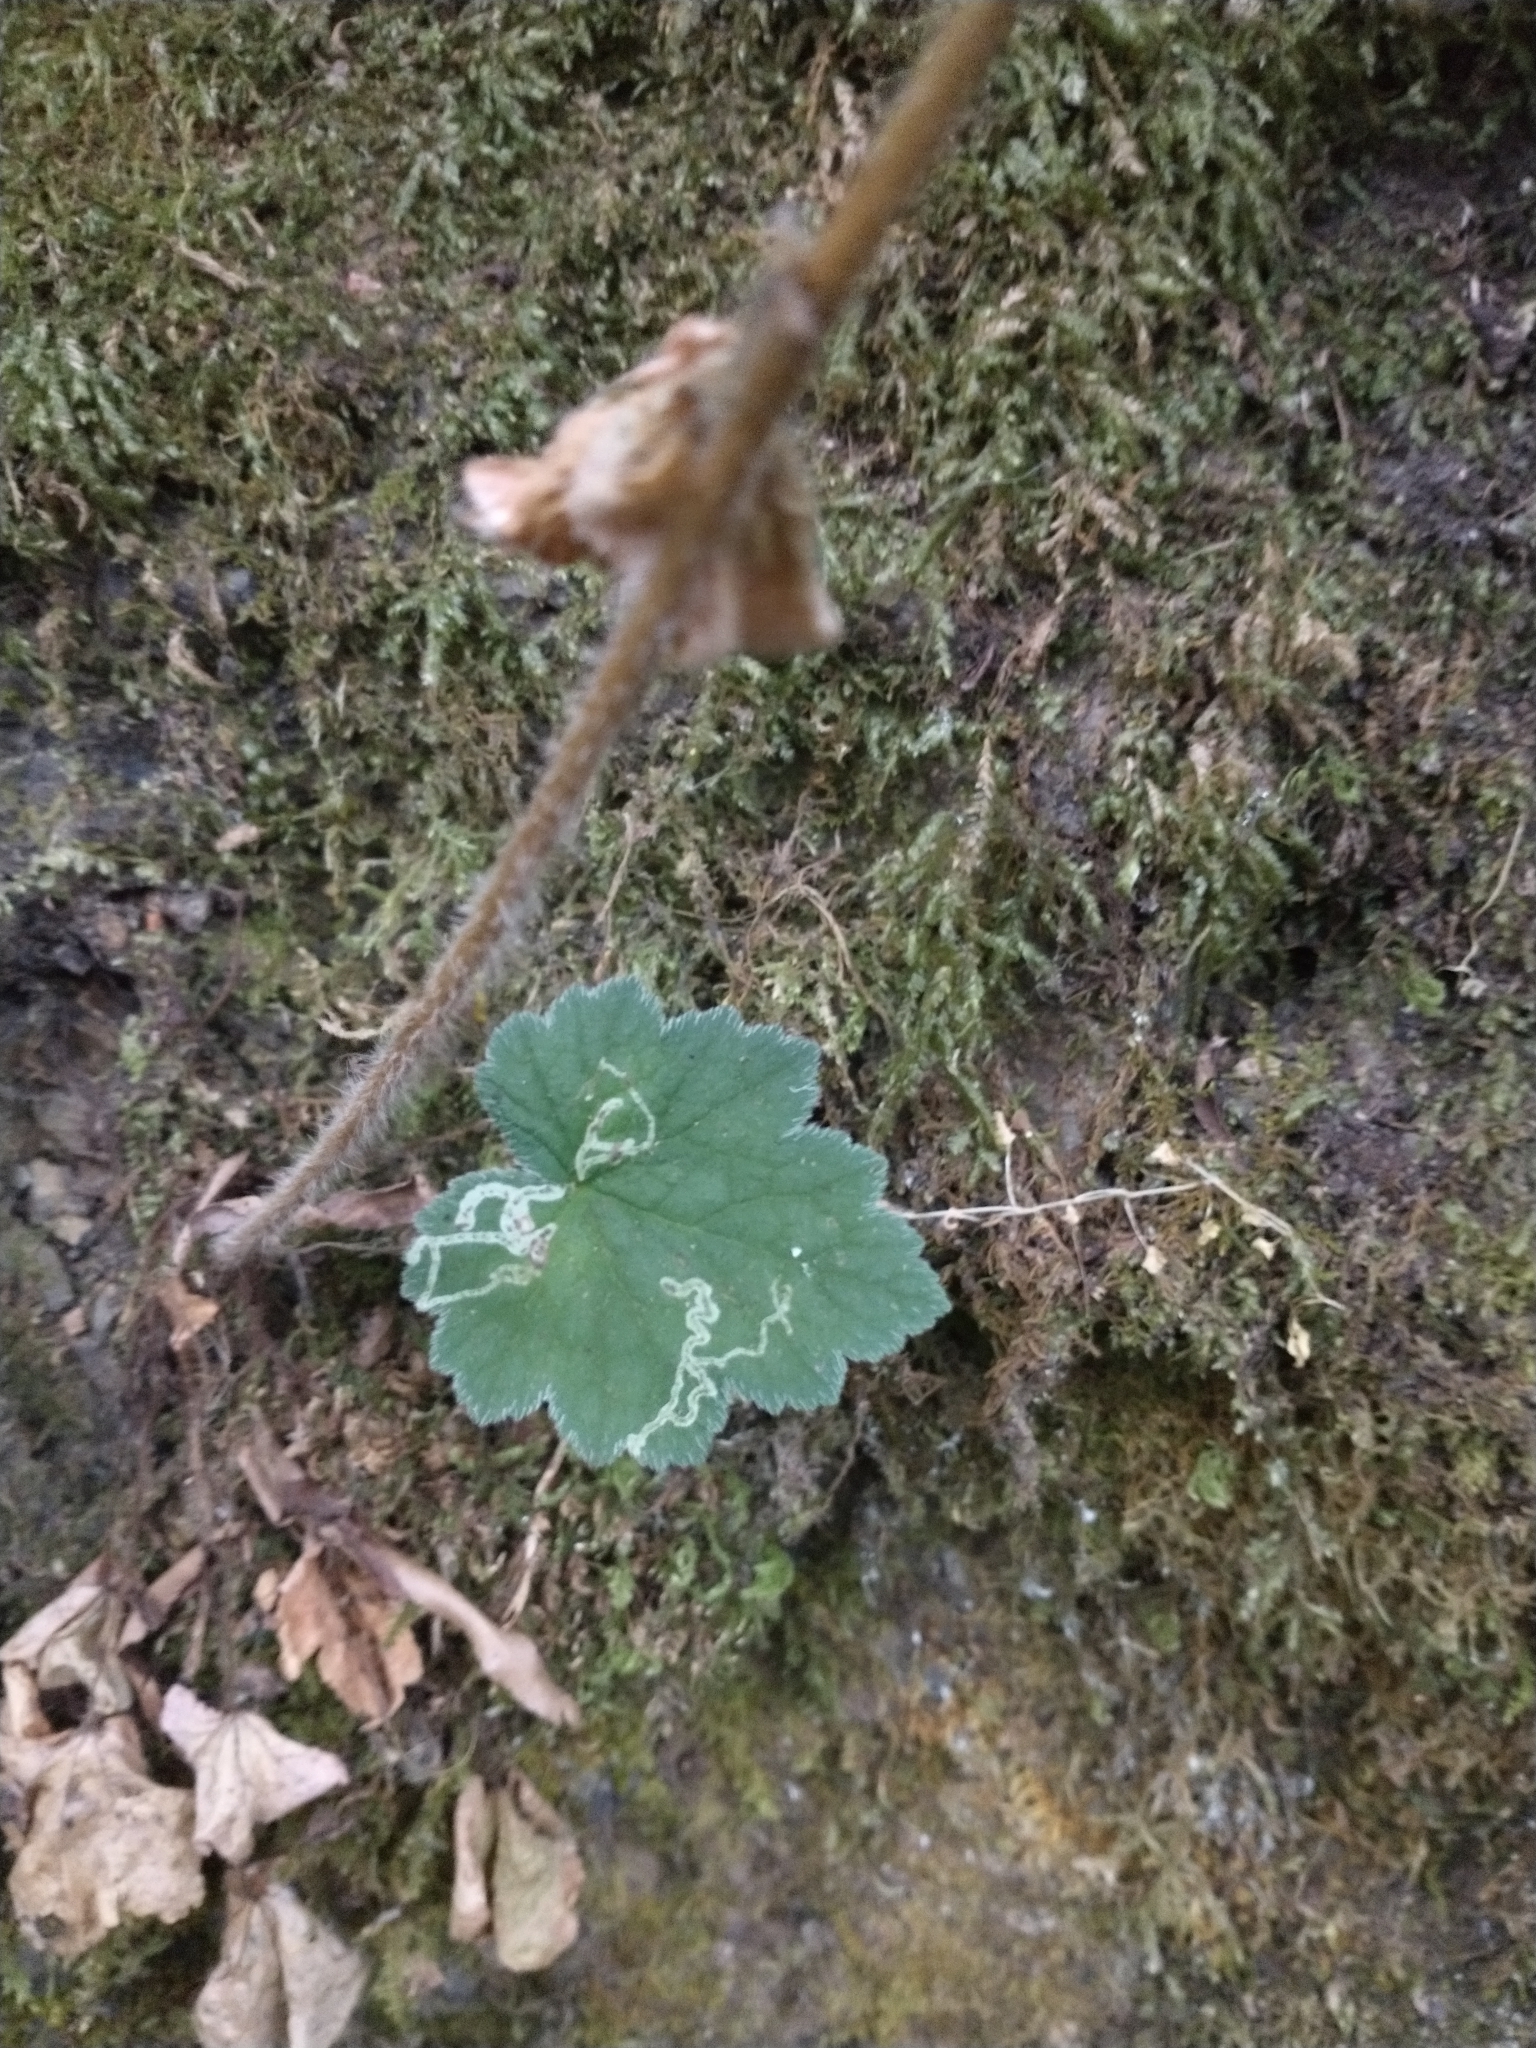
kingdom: Plantae
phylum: Tracheophyta
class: Magnoliopsida
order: Saxifragales
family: Saxifragaceae
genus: Heuchera
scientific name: Heuchera micrantha
